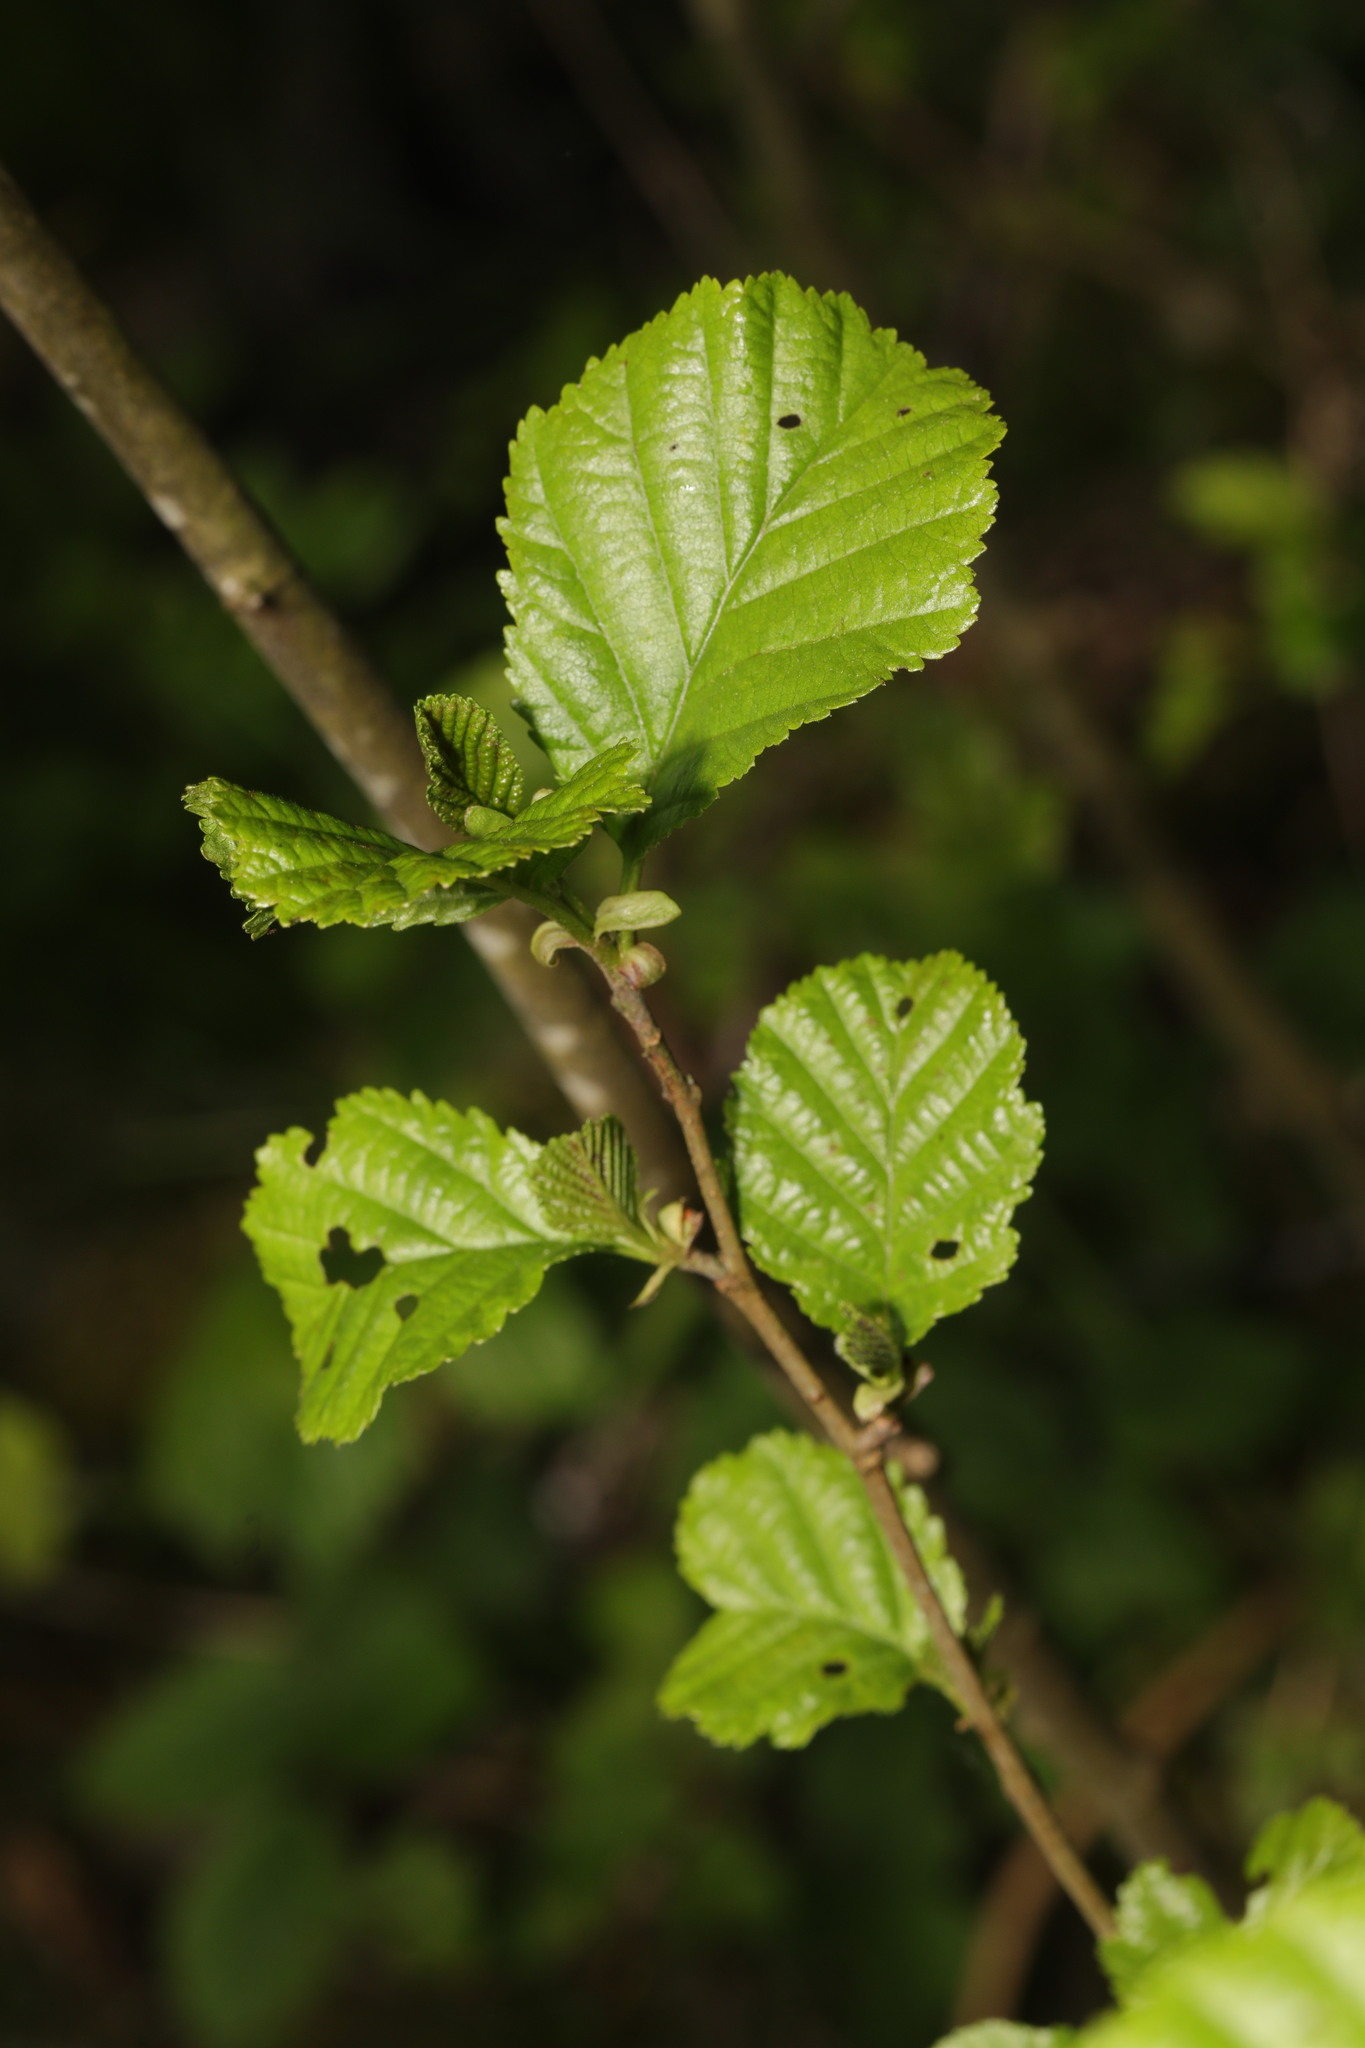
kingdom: Plantae
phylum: Tracheophyta
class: Magnoliopsida
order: Fagales
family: Betulaceae
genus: Alnus
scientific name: Alnus glutinosa
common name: Black alder
